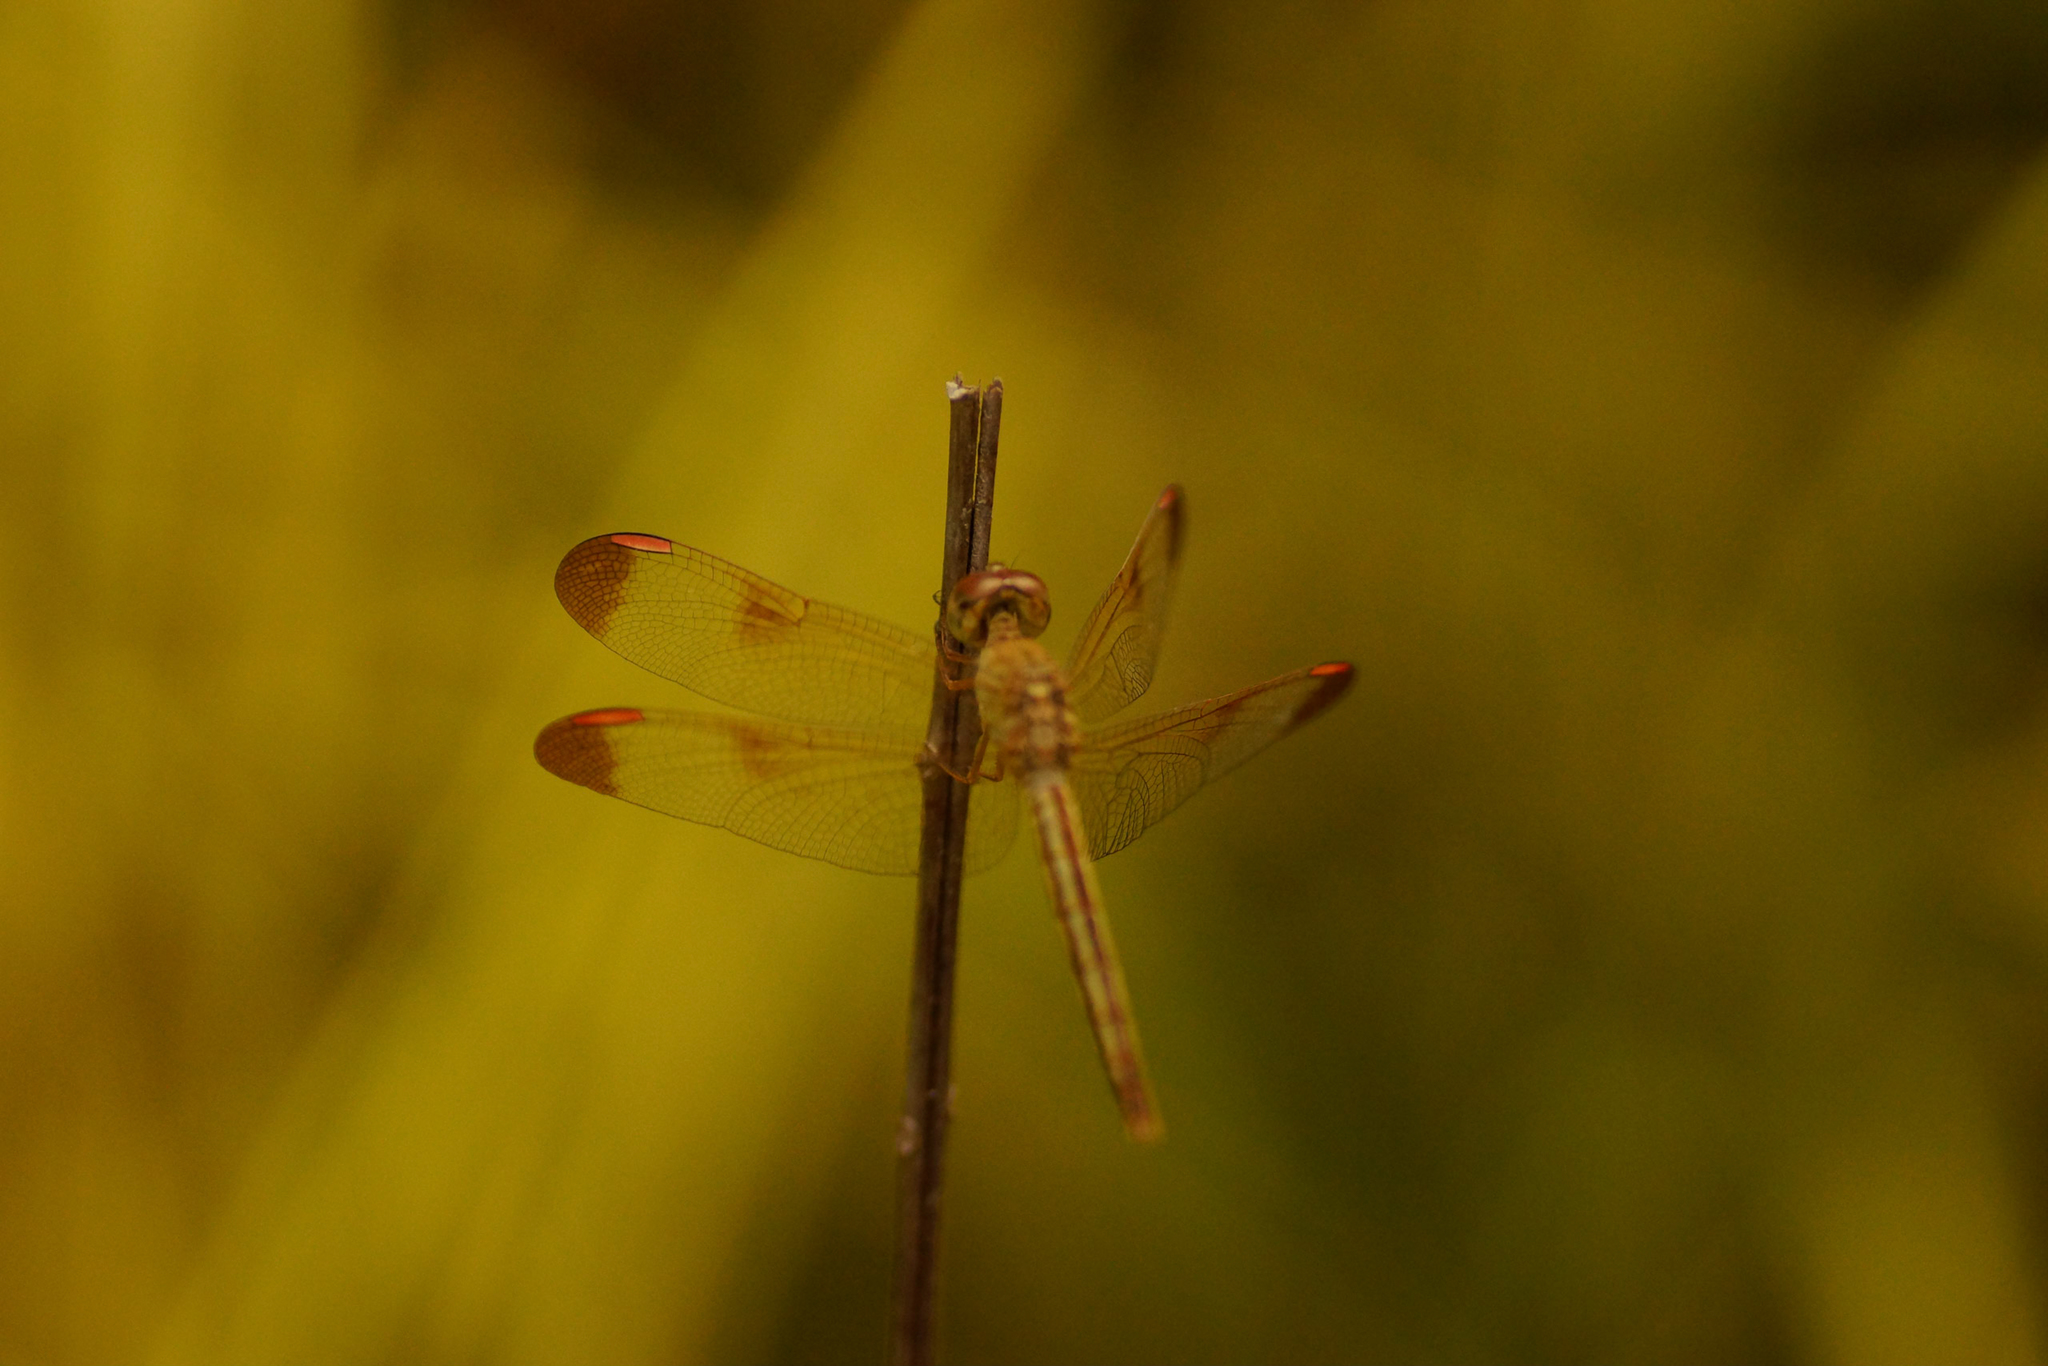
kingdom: Animalia
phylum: Arthropoda
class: Insecta
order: Odonata
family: Libellulidae
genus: Neurothemis
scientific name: Neurothemis stigmatizans
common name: Painted grasshawk
